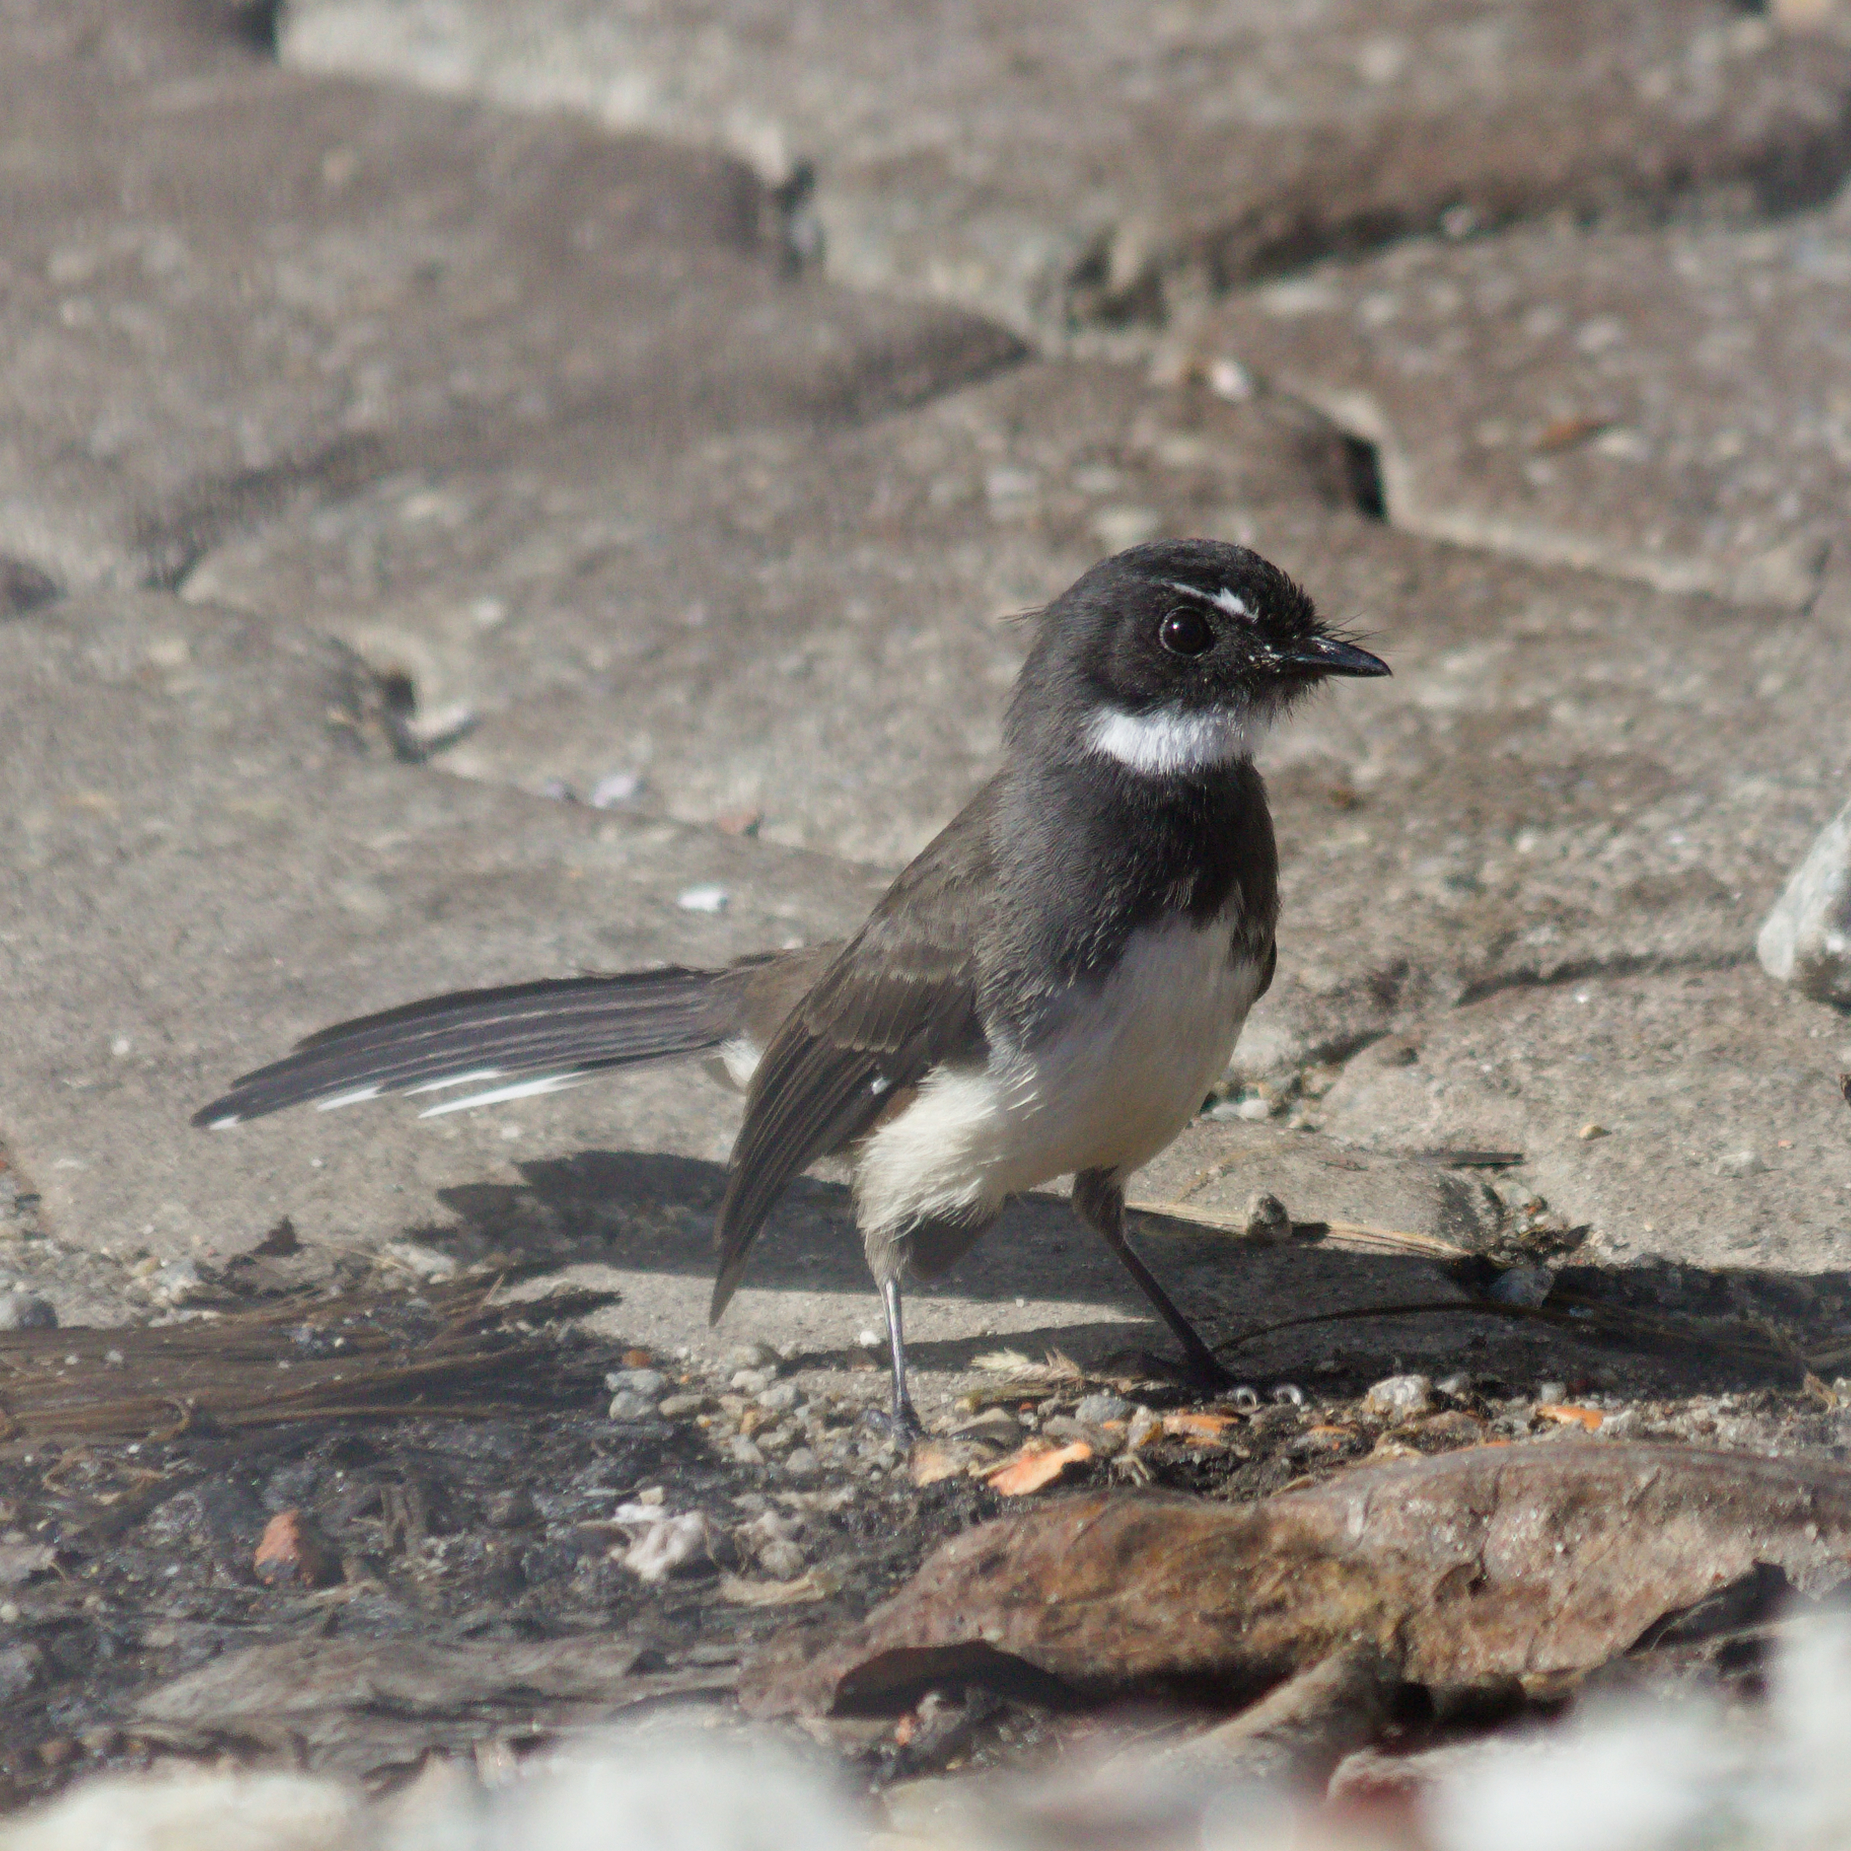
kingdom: Animalia
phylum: Chordata
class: Aves
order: Passeriformes
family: Rhipiduridae
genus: Rhipidura
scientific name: Rhipidura javanica
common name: Pied fantail
